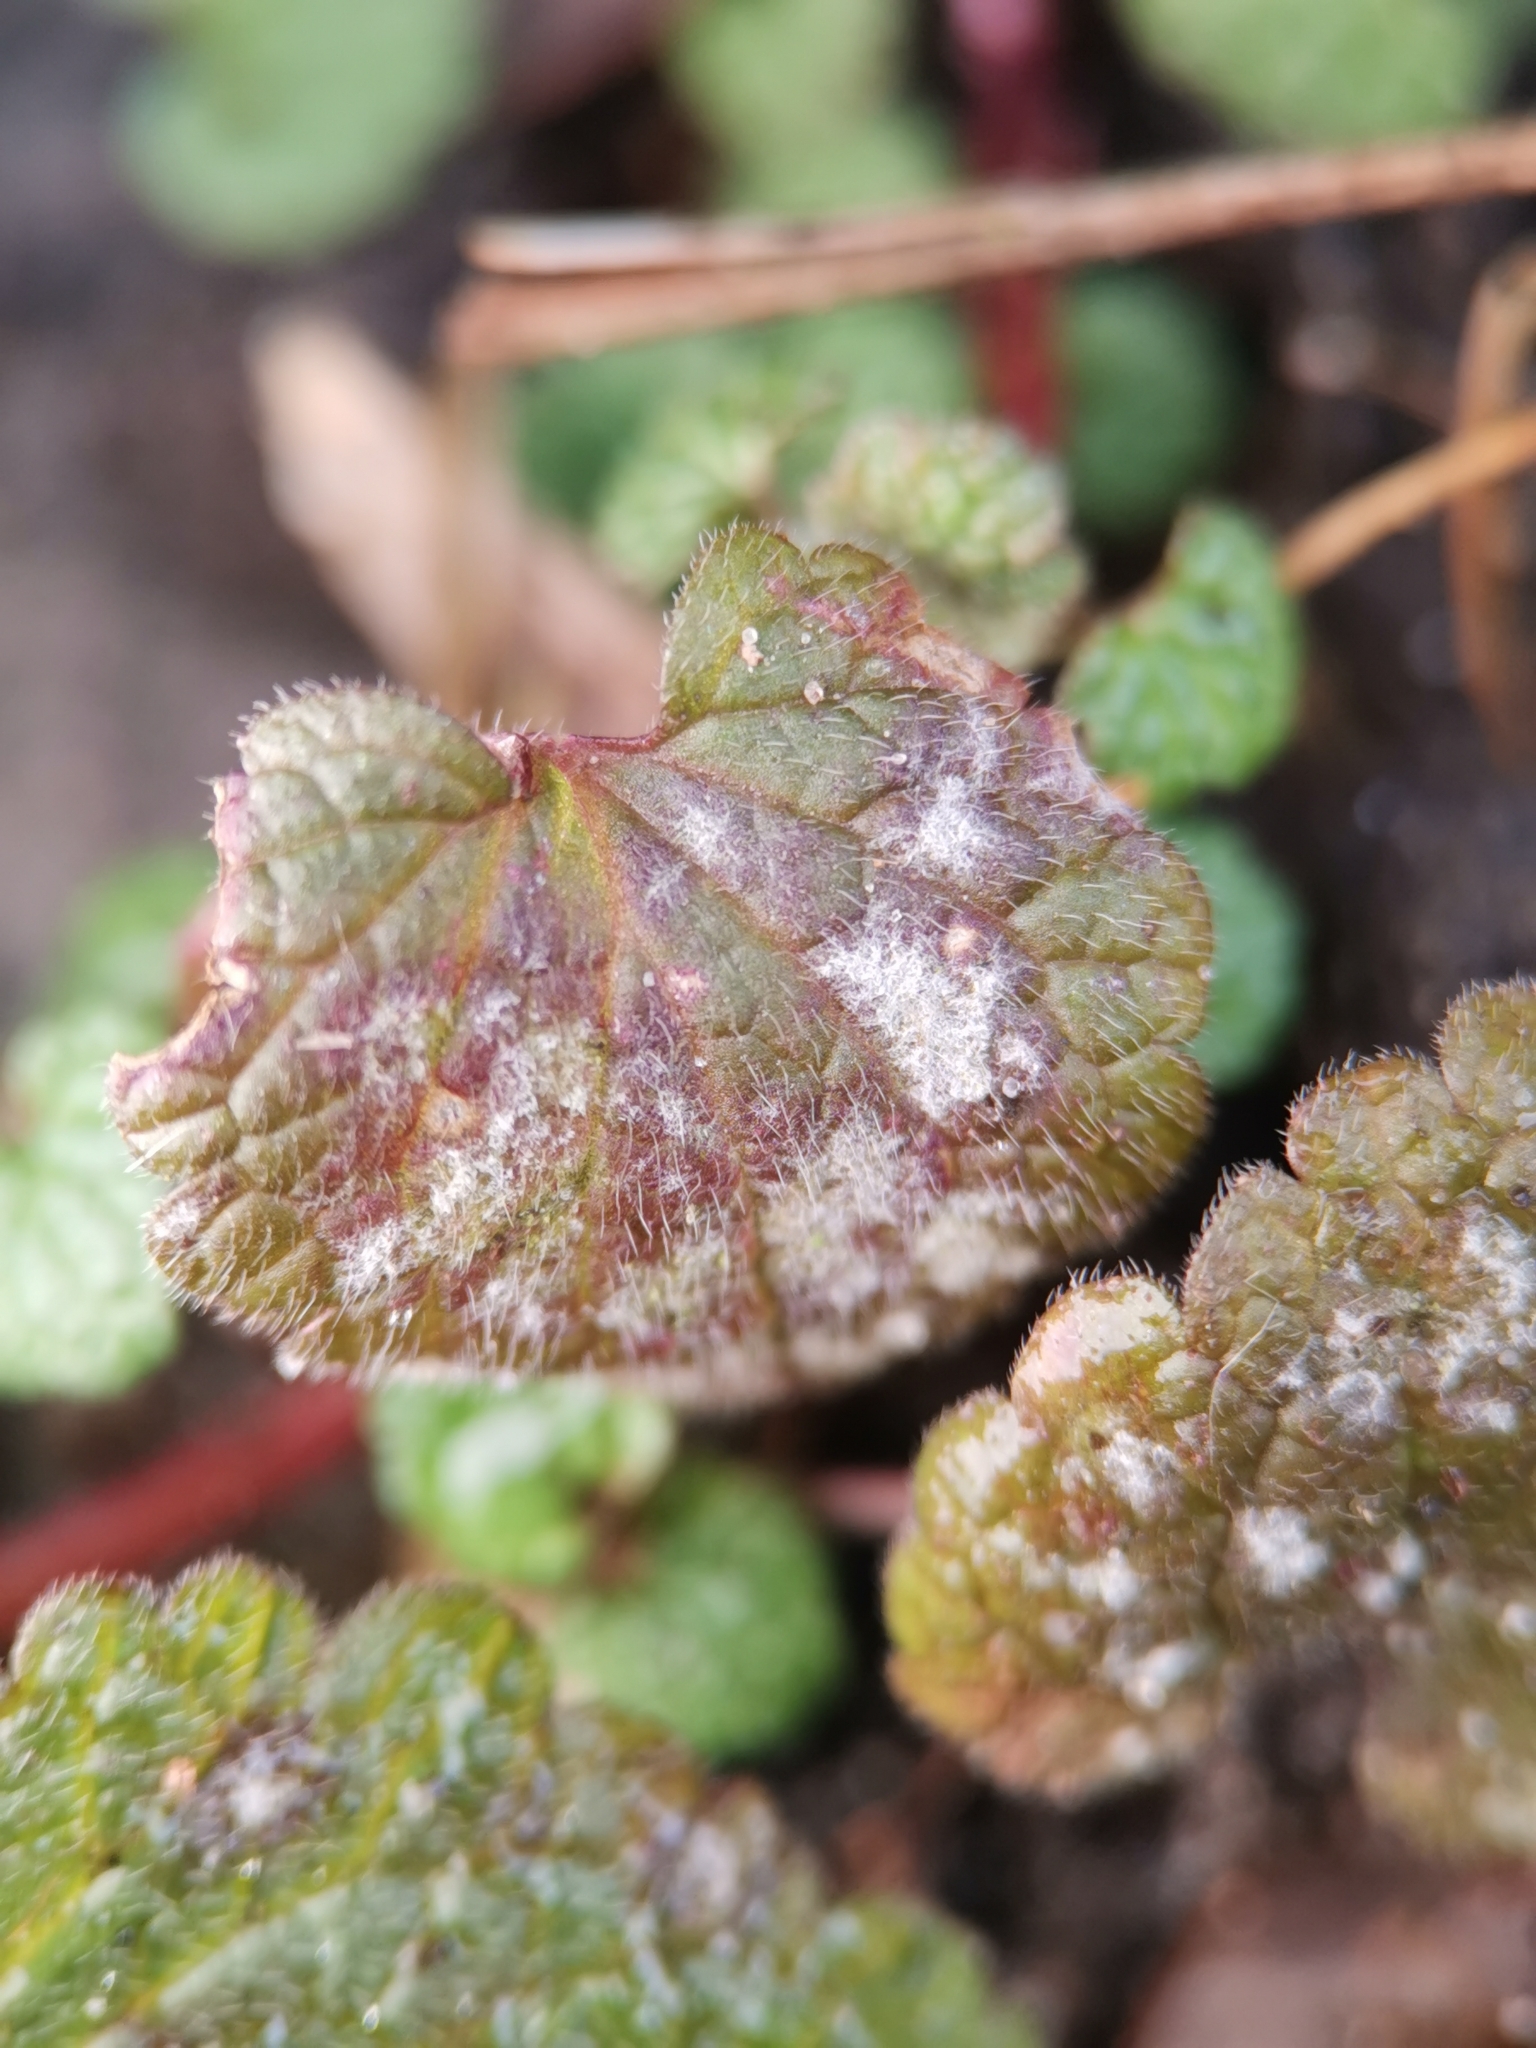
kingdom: Fungi
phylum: Ascomycota
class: Leotiomycetes
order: Helotiales
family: Erysiphaceae
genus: Neoerysiphe
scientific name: Neoerysiphe galeopsidis
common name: Mint mildew
